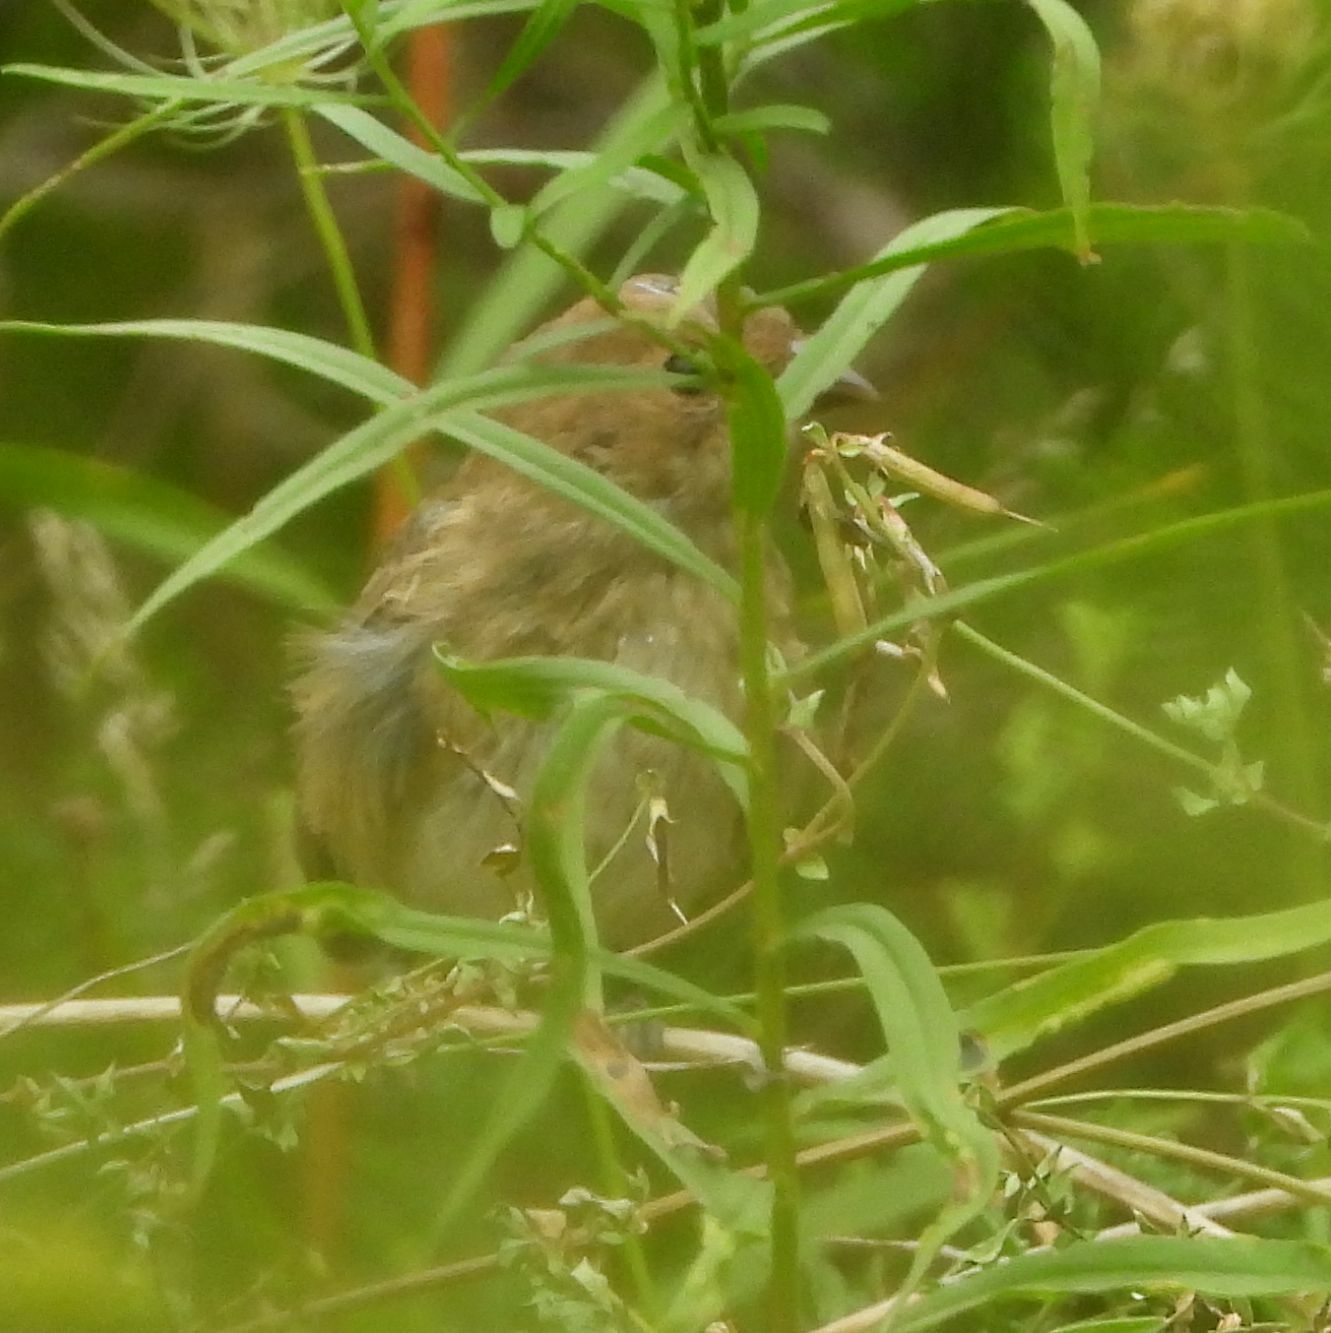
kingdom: Animalia
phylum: Chordata
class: Aves
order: Passeriformes
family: Cardinalidae
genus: Passerina
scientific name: Passerina cyanea
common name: Indigo bunting
